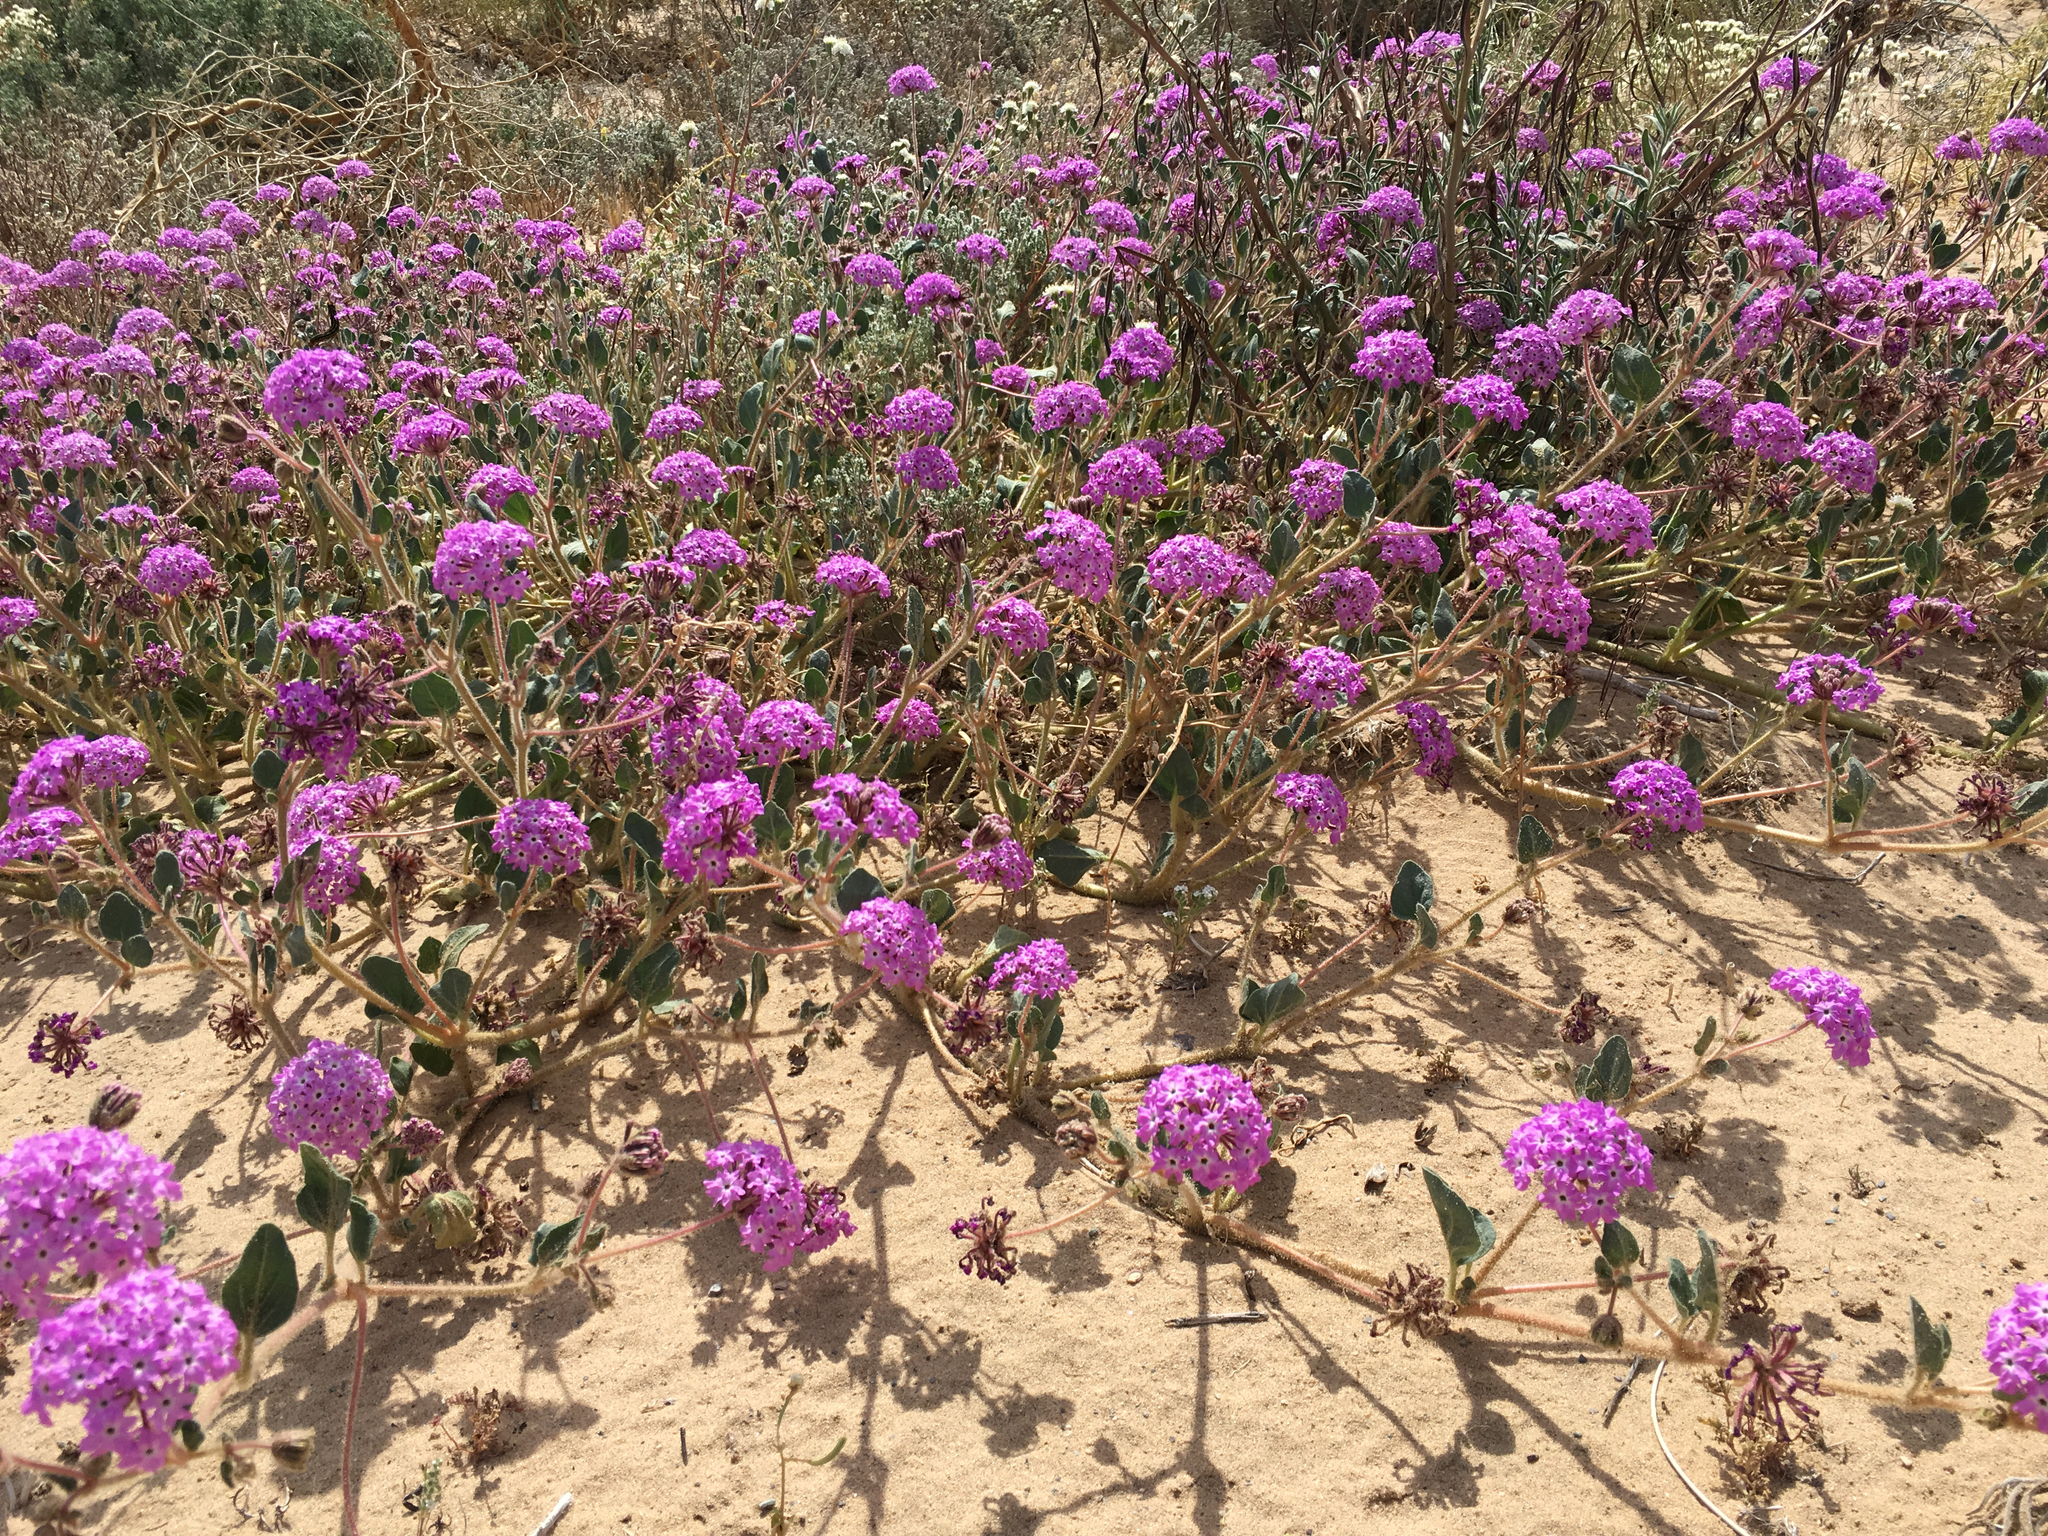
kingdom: Plantae
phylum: Tracheophyta
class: Magnoliopsida
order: Caryophyllales
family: Nyctaginaceae
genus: Abronia
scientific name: Abronia villosa
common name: Desert sand-verbena
